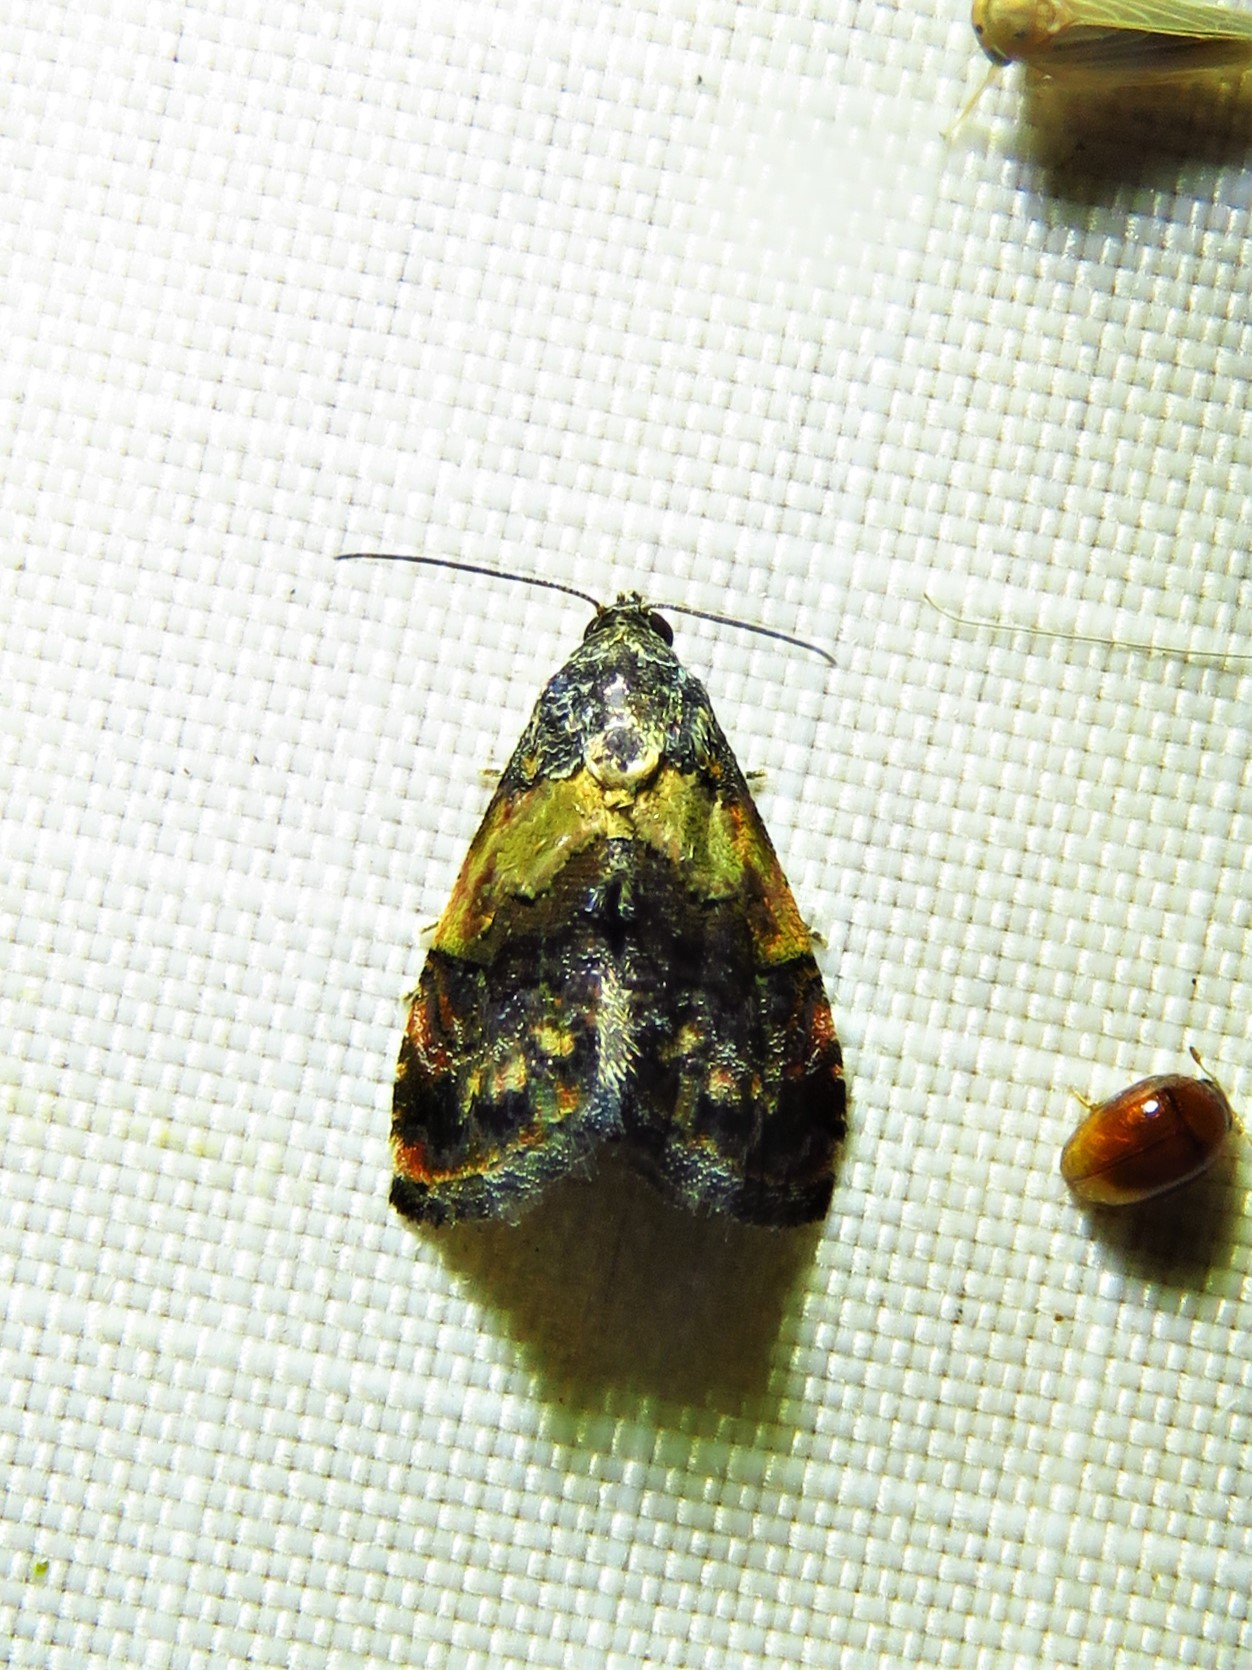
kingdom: Animalia
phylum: Arthropoda
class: Insecta
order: Lepidoptera
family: Noctuidae
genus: Tripudia
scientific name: Tripudia flavofasciata
